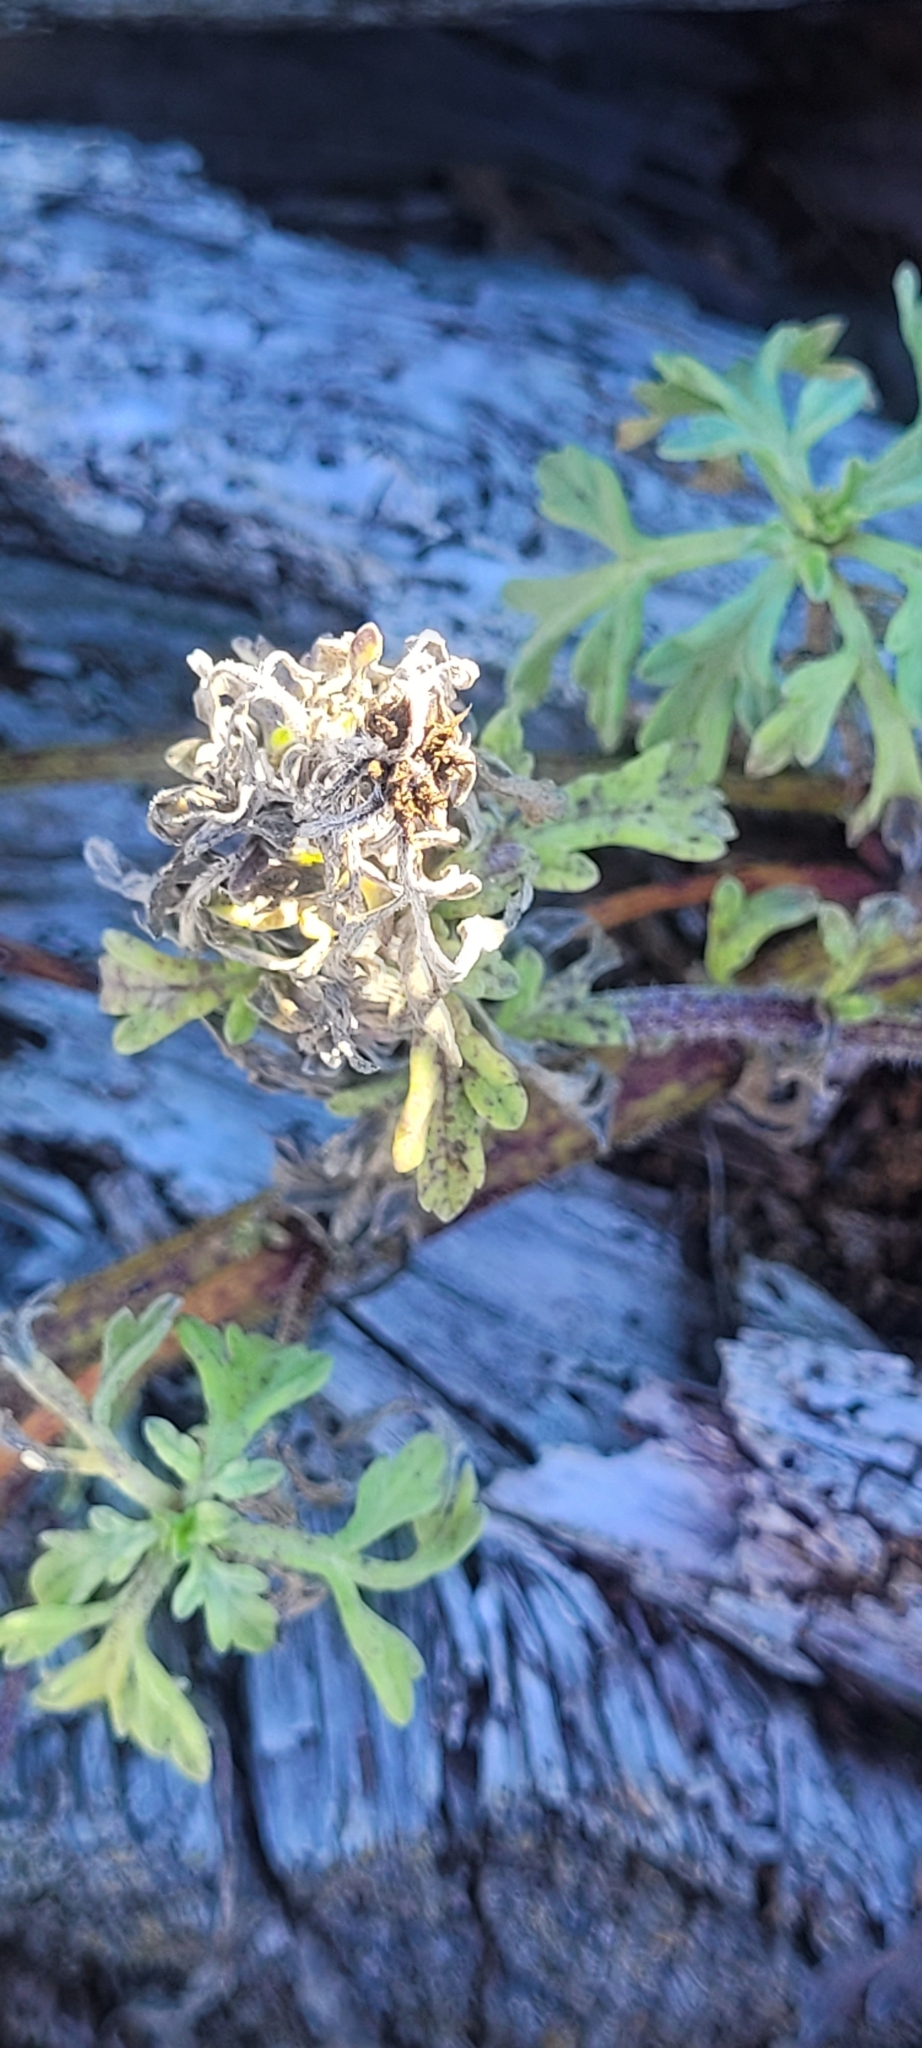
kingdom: Plantae
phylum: Tracheophyta
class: Magnoliopsida
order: Asterales
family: Asteraceae
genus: Ambrosia
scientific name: Ambrosia chamissonis
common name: Beachbur
